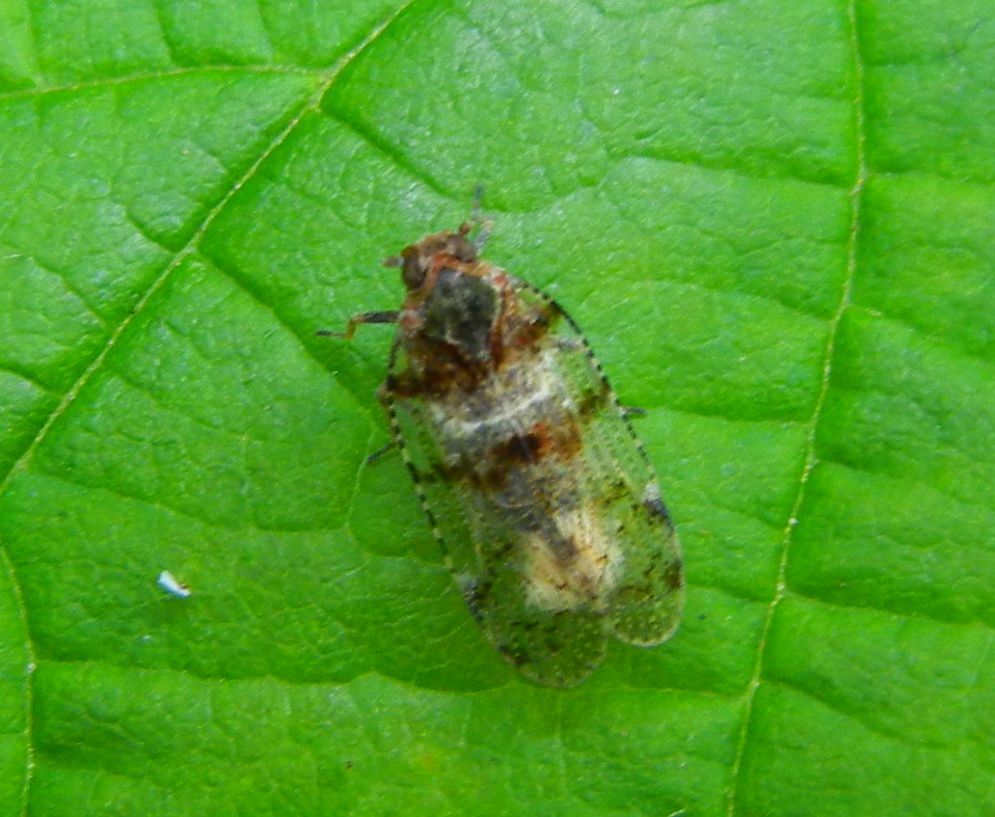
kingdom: Animalia
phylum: Arthropoda
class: Insecta
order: Hemiptera
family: Cixiidae
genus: Cixius
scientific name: Cixius nervosus
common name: Common lacehopper
